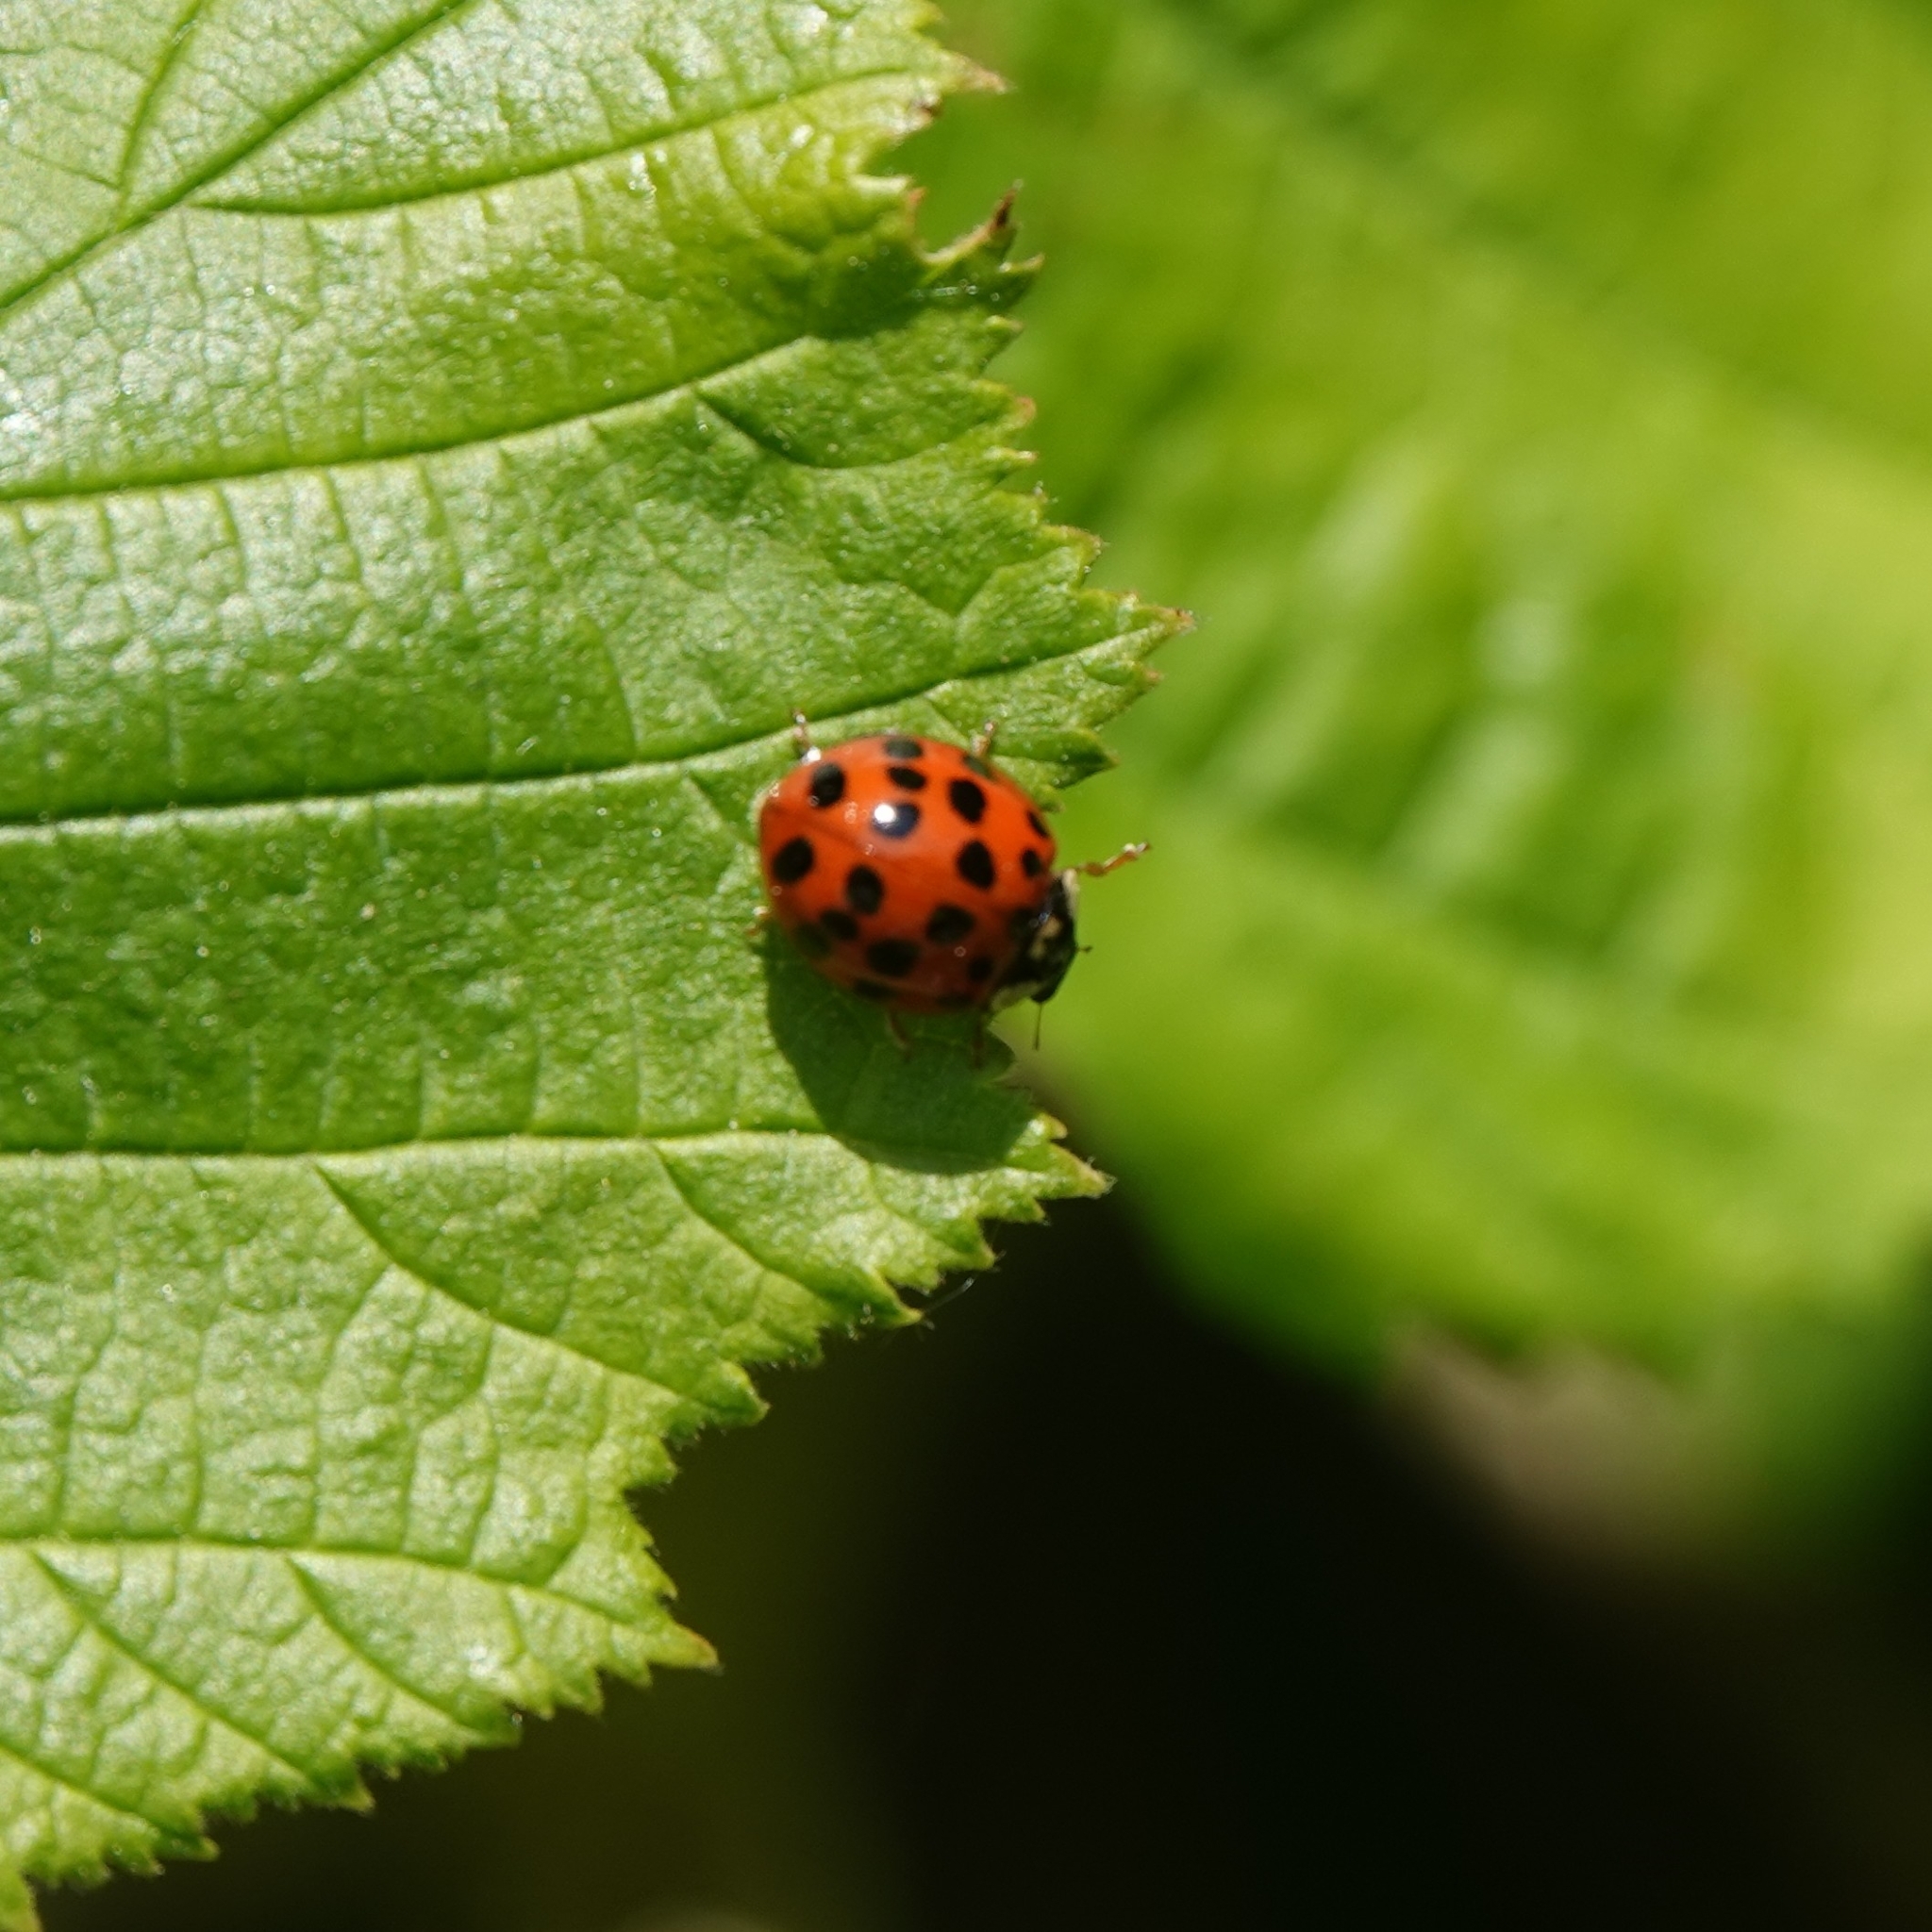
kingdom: Animalia
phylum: Arthropoda
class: Insecta
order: Coleoptera
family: Coccinellidae
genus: Harmonia
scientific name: Harmonia axyridis
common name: Harlequin ladybird
